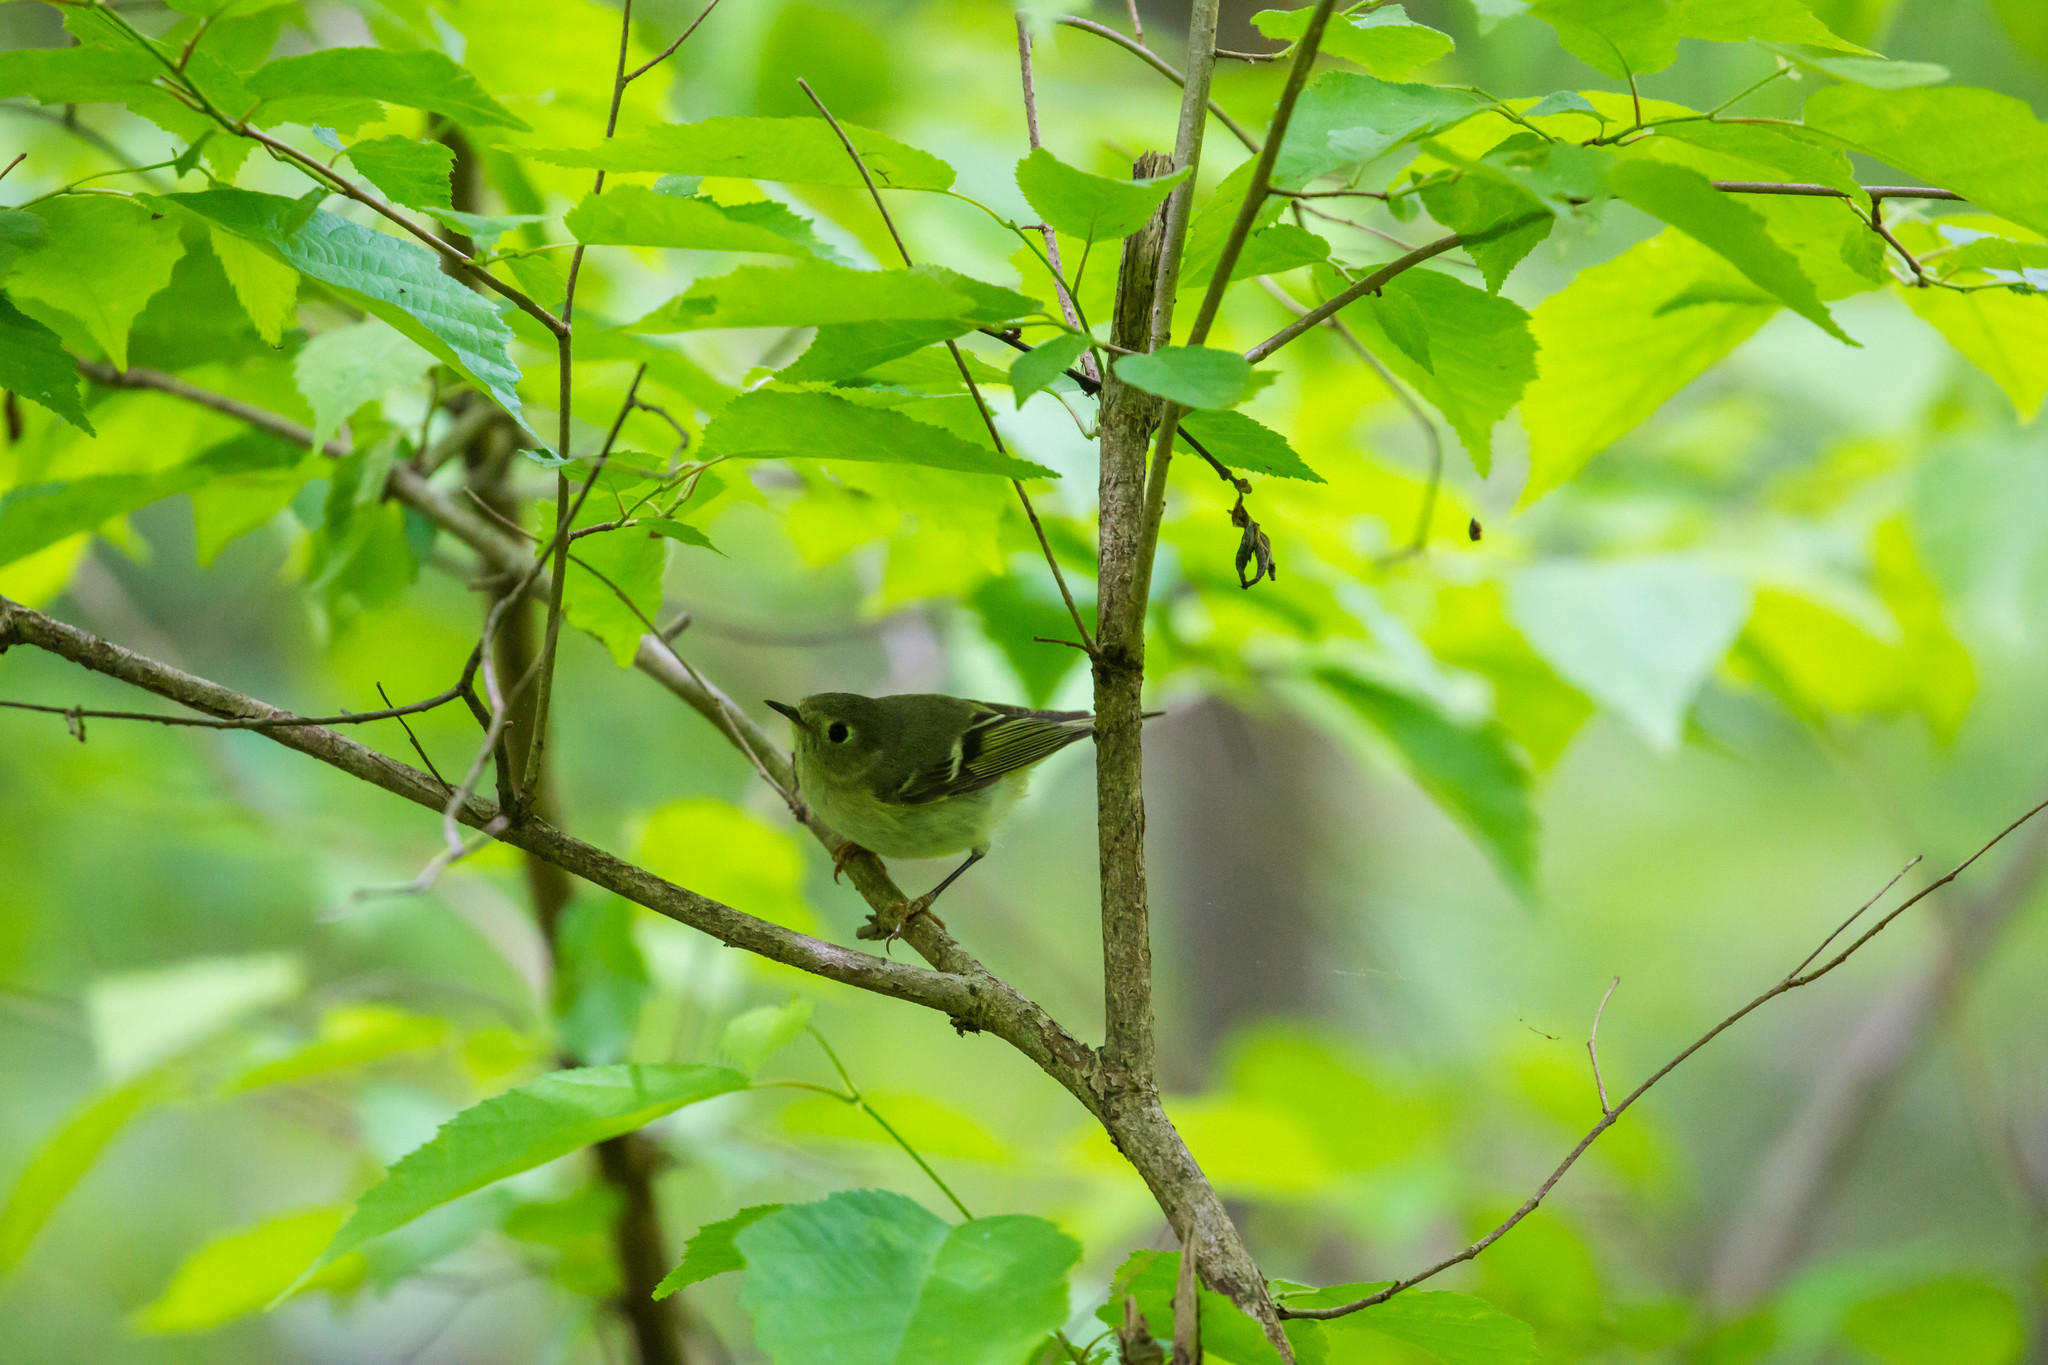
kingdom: Animalia
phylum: Chordata
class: Aves
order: Passeriformes
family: Regulidae
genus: Regulus
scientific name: Regulus calendula
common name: Ruby-crowned kinglet
